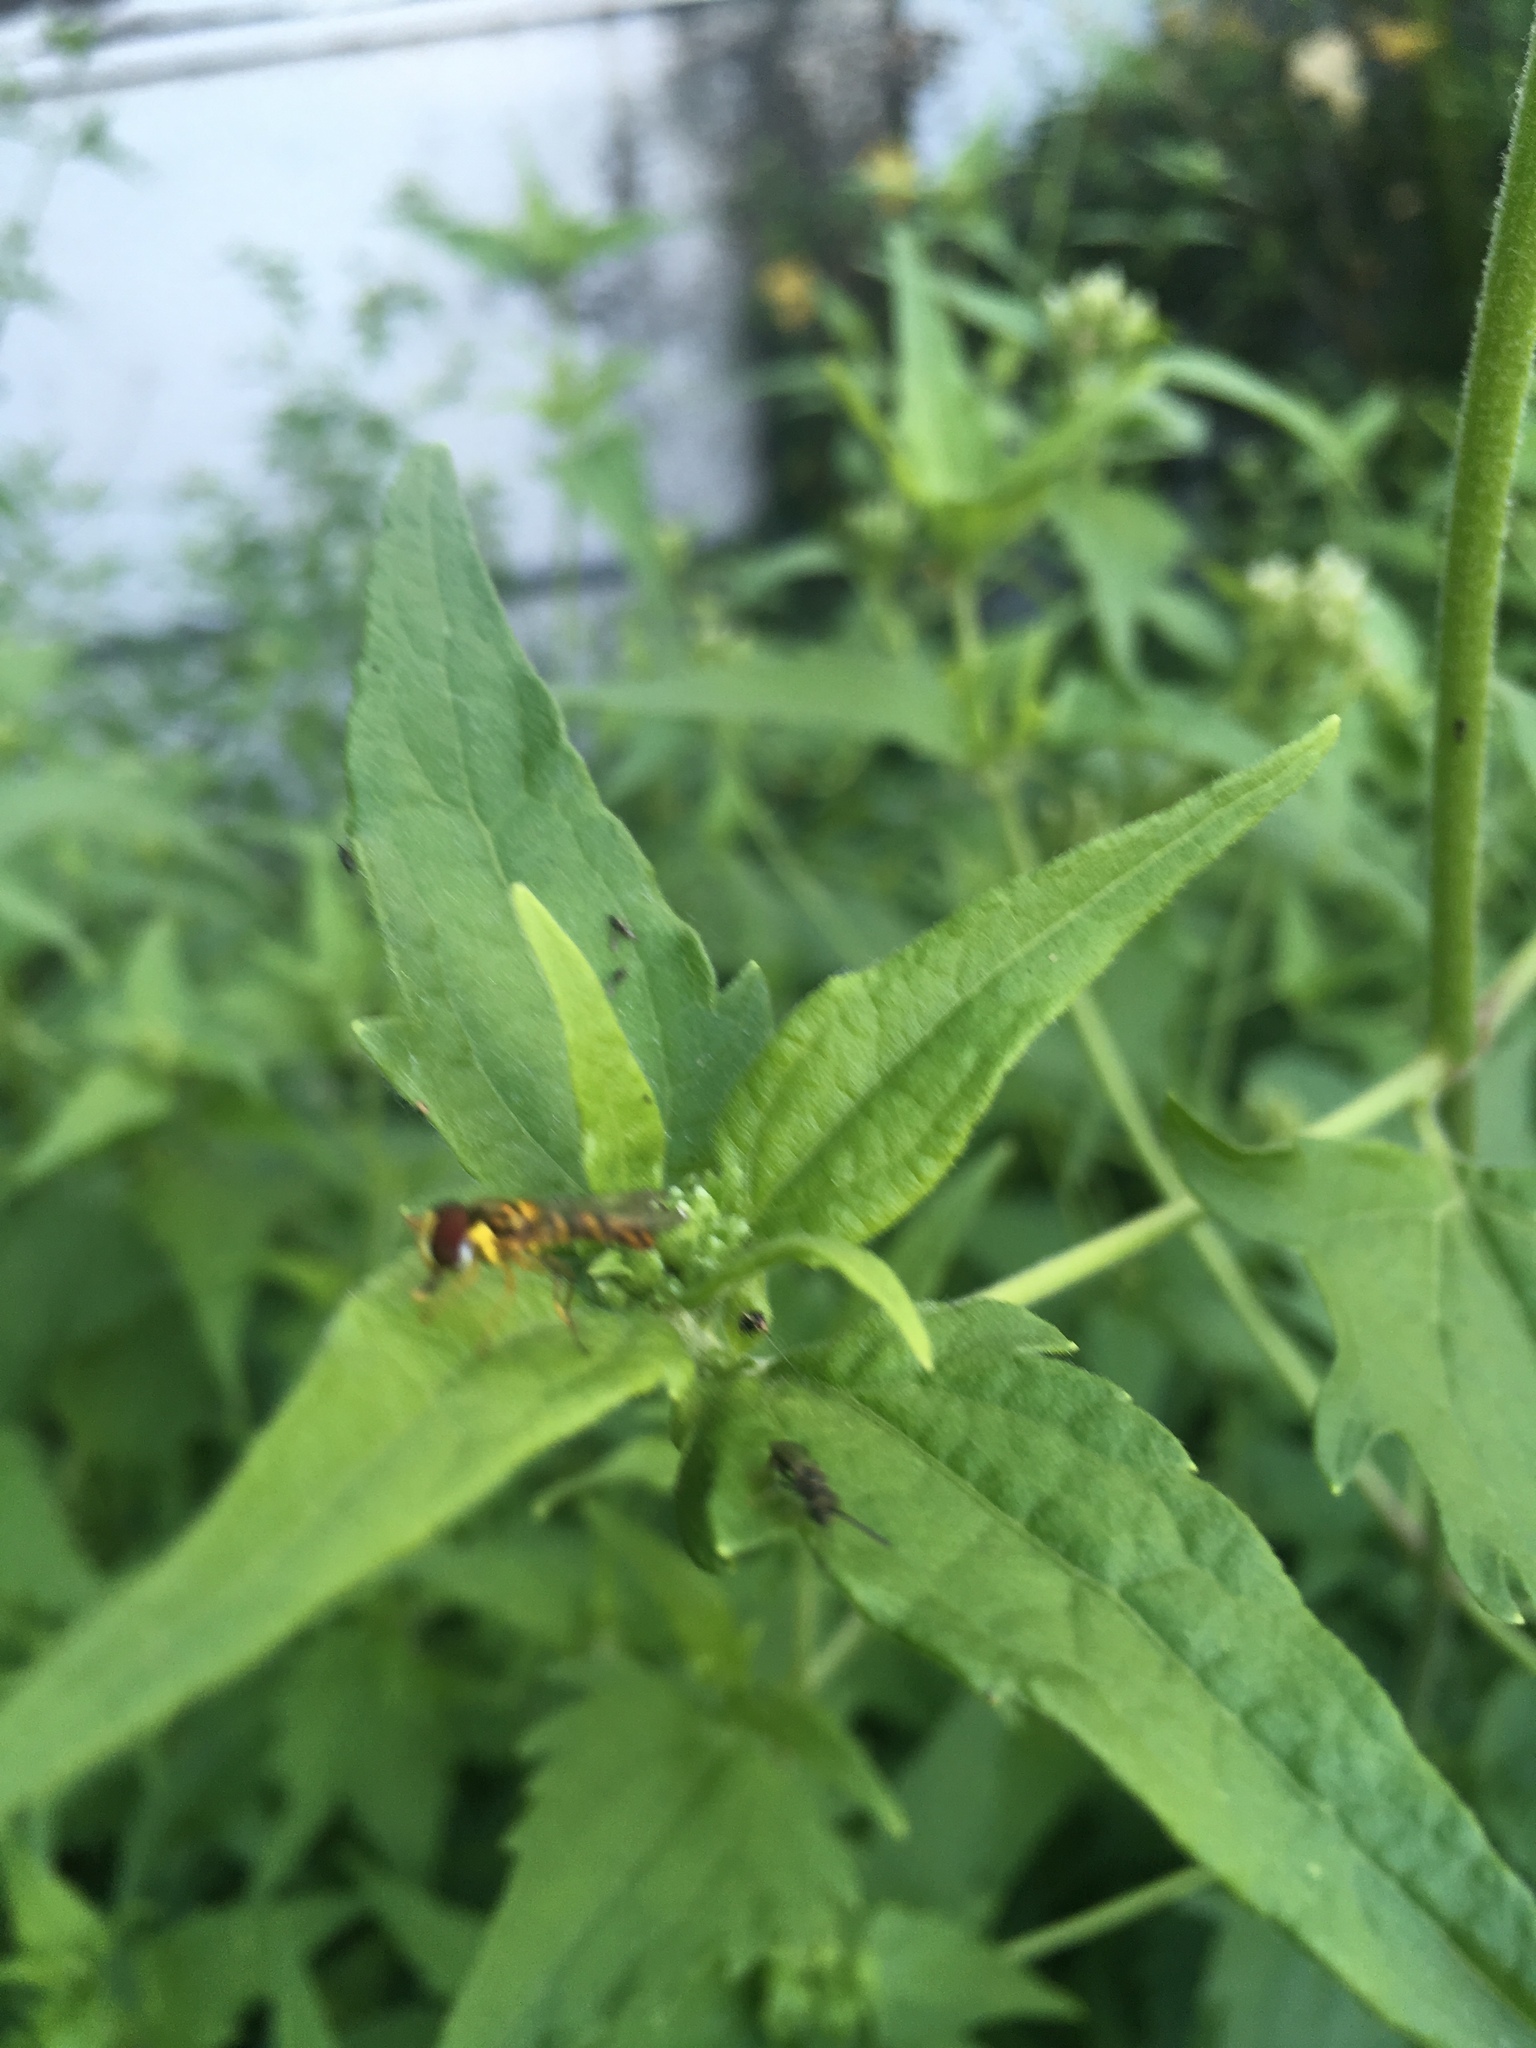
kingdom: Animalia
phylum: Arthropoda
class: Insecta
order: Diptera
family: Syrphidae
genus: Allograpta
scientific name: Allograpta
